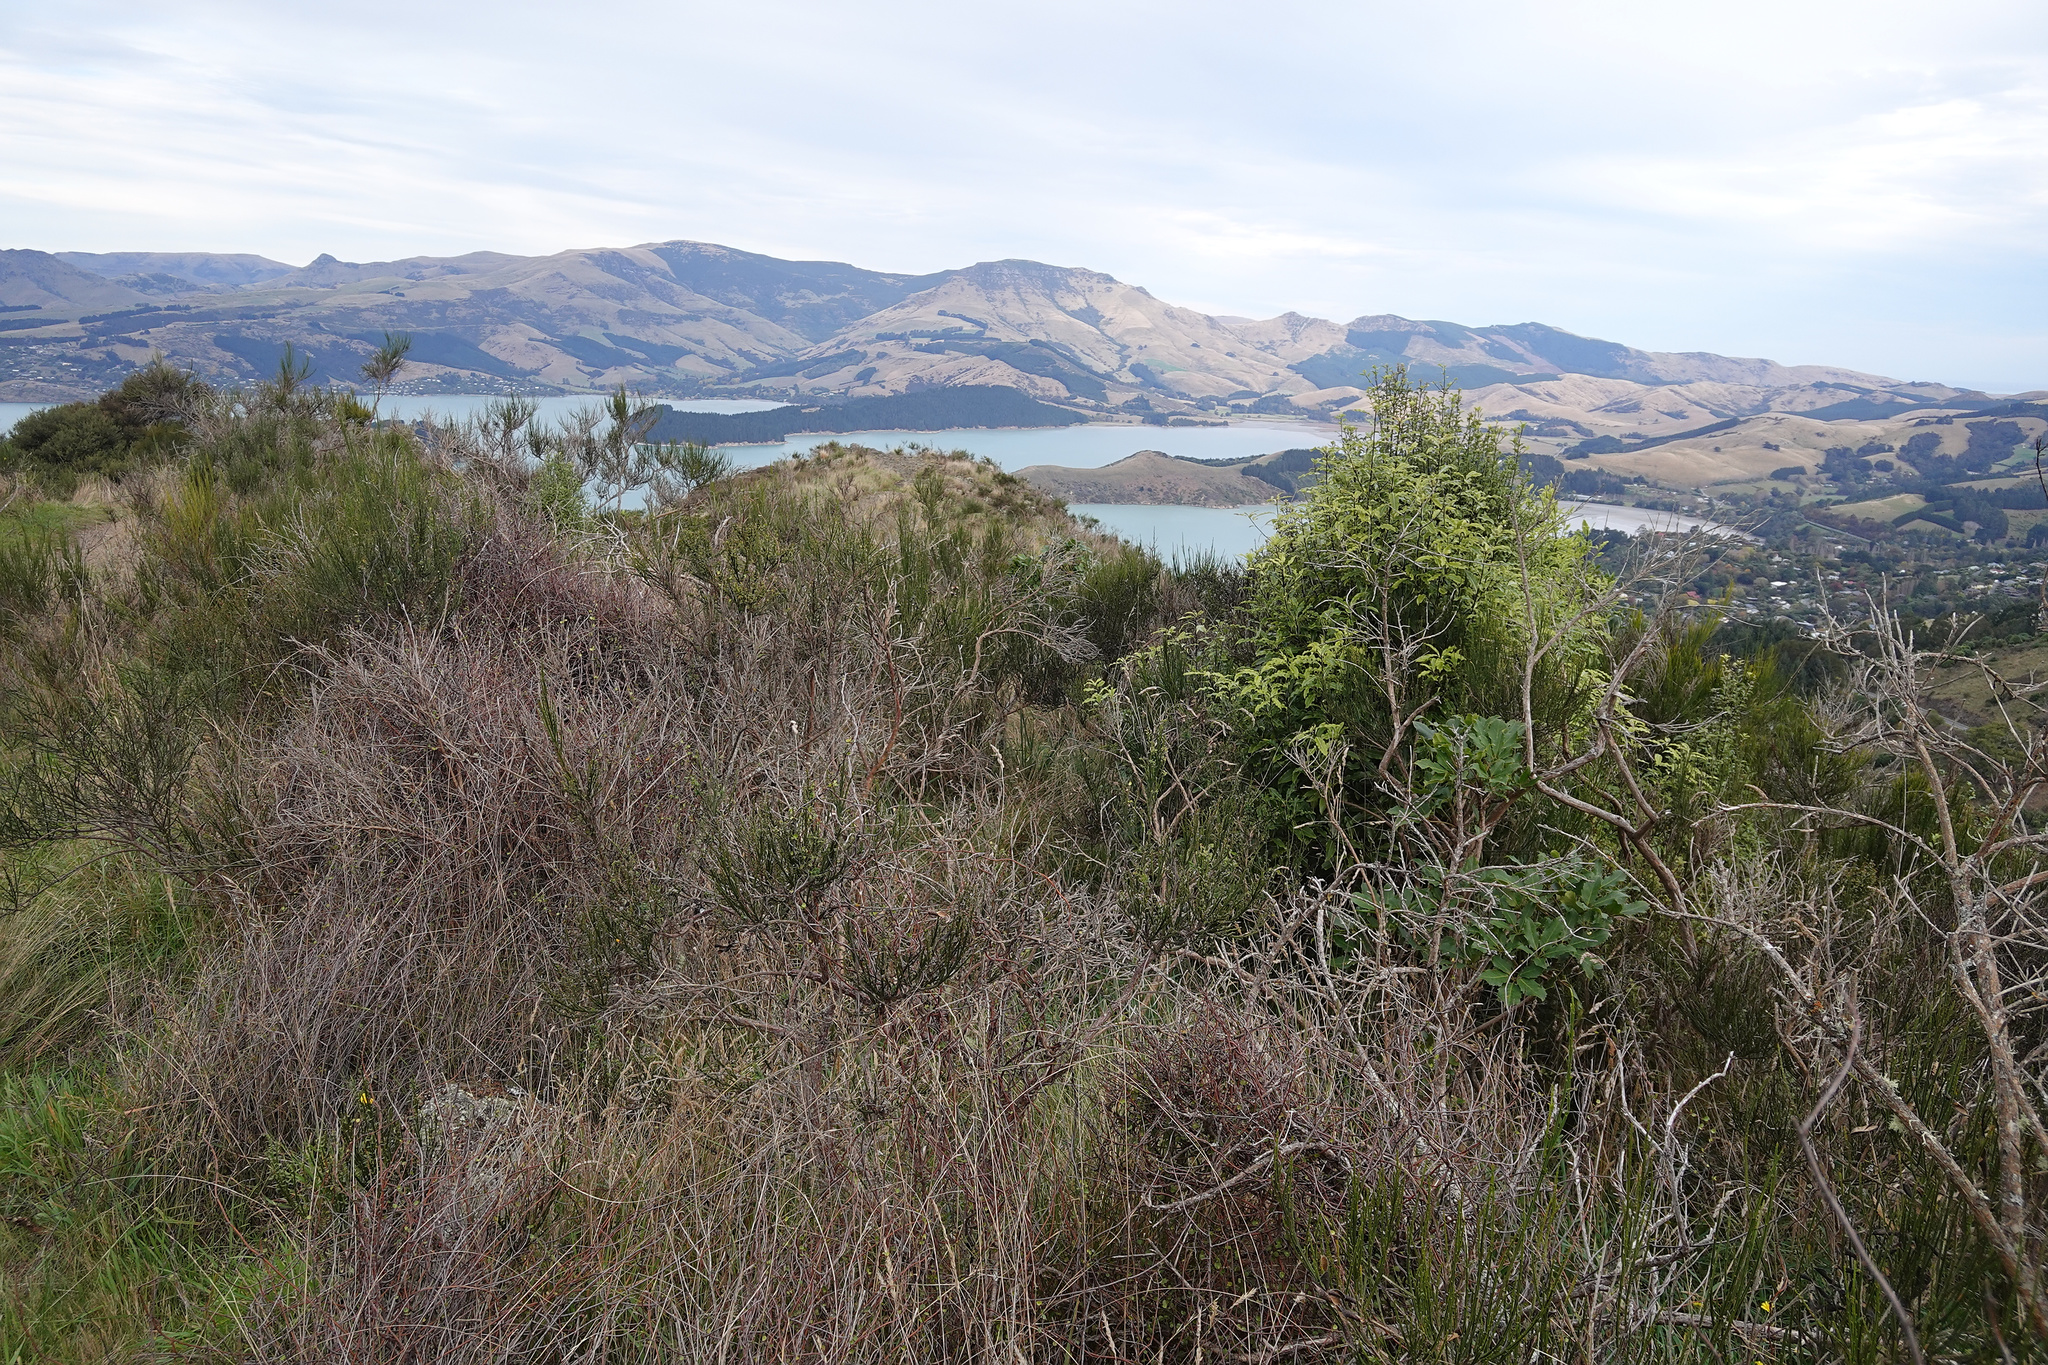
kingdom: Plantae
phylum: Tracheophyta
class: Magnoliopsida
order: Apiales
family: Pittosporaceae
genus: Pittosporum
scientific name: Pittosporum eugenioides
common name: Lemonwood
